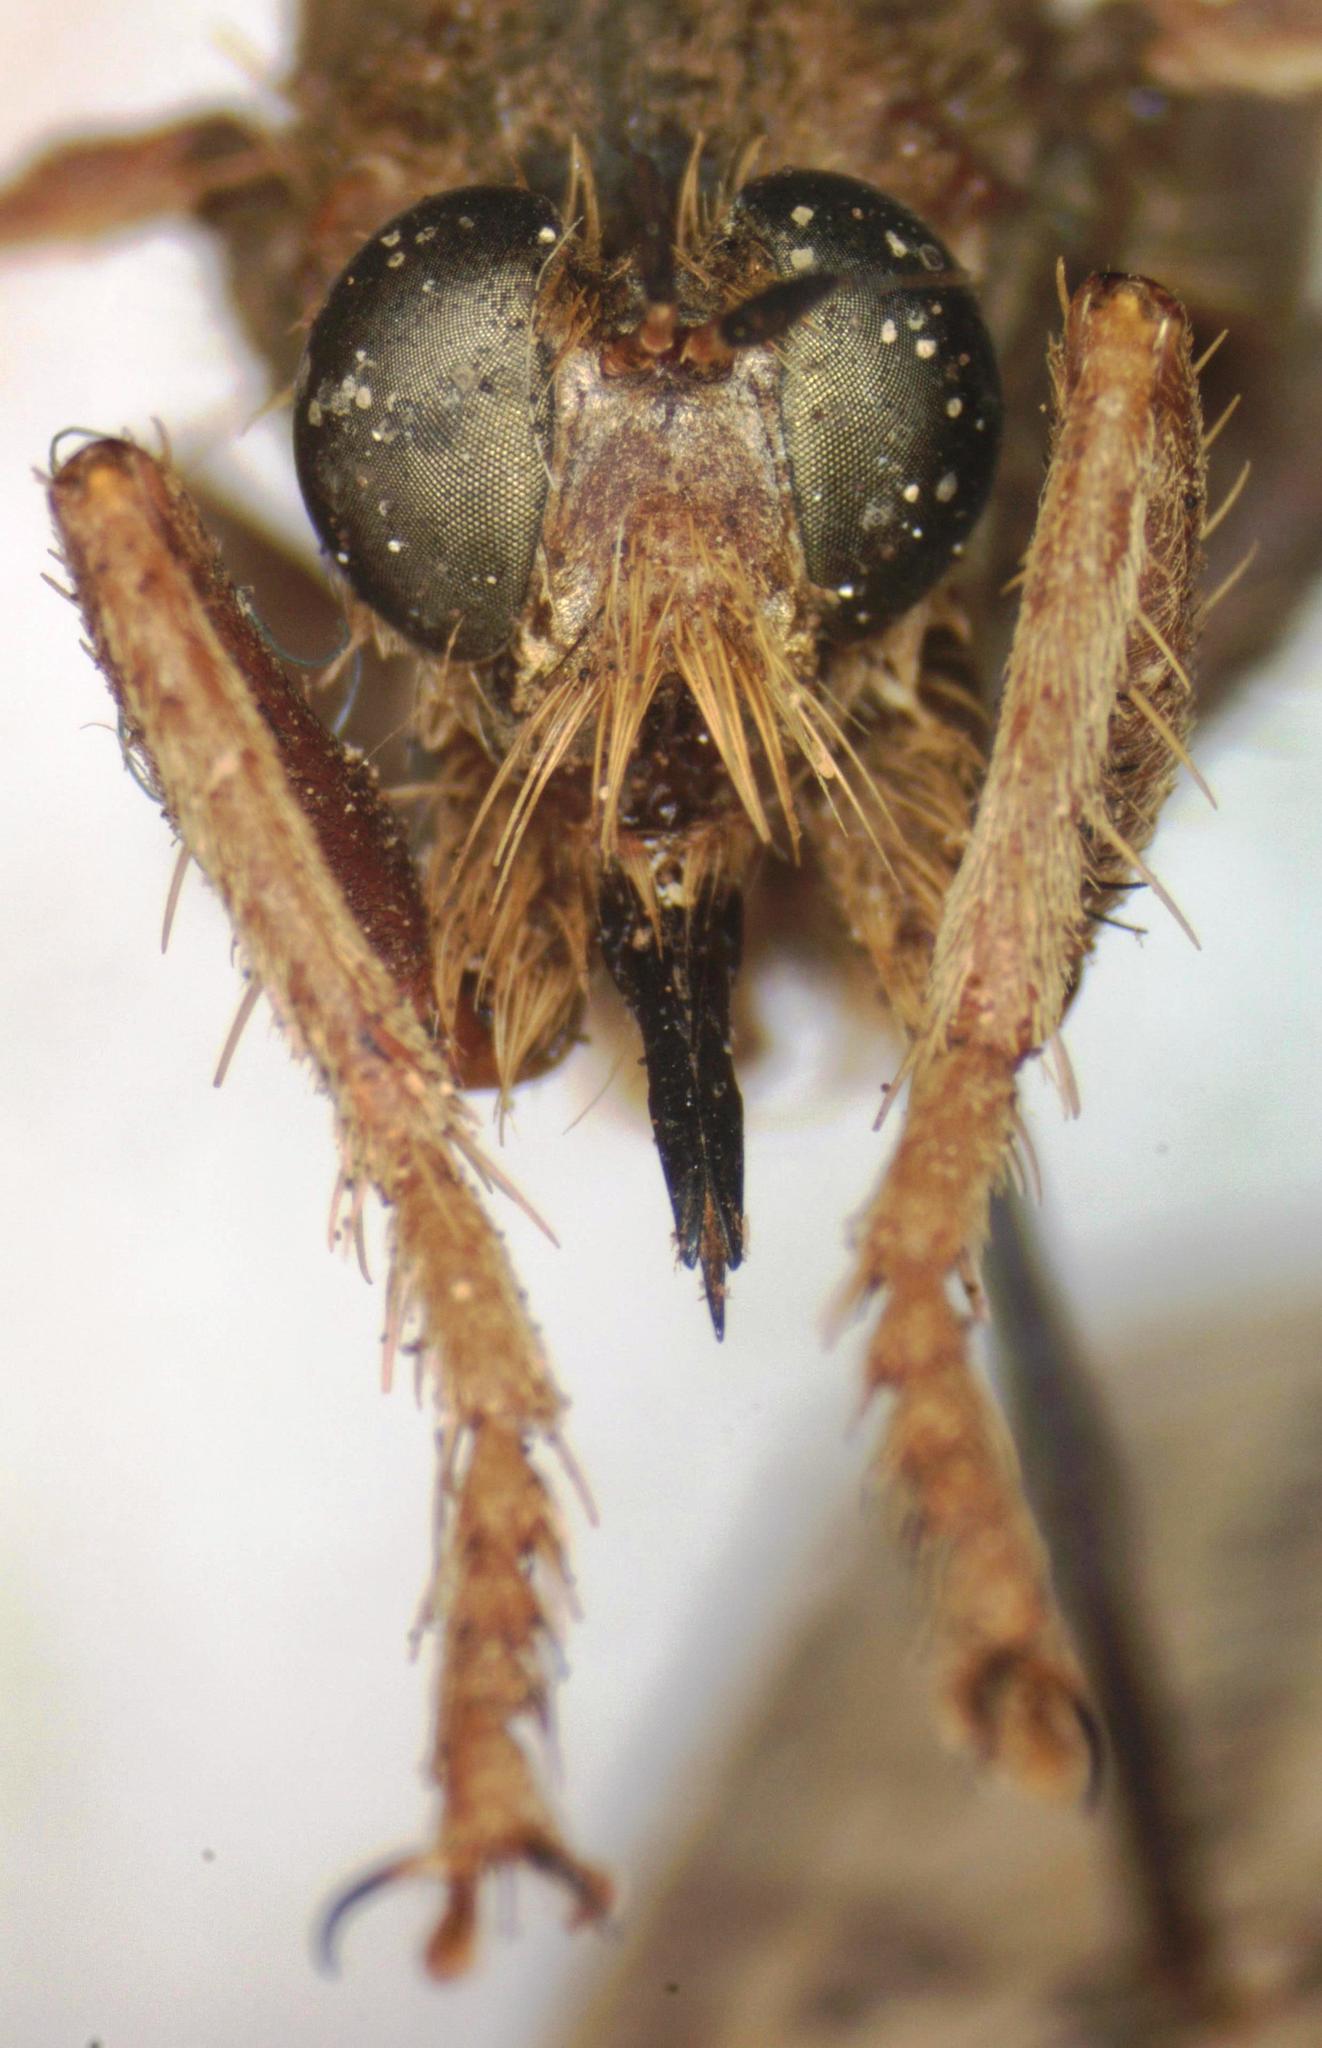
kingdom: Animalia
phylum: Arthropoda
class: Insecta
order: Diptera
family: Asilidae
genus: Asilus
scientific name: Asilus crabroniformis
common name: Hornet robberfly
